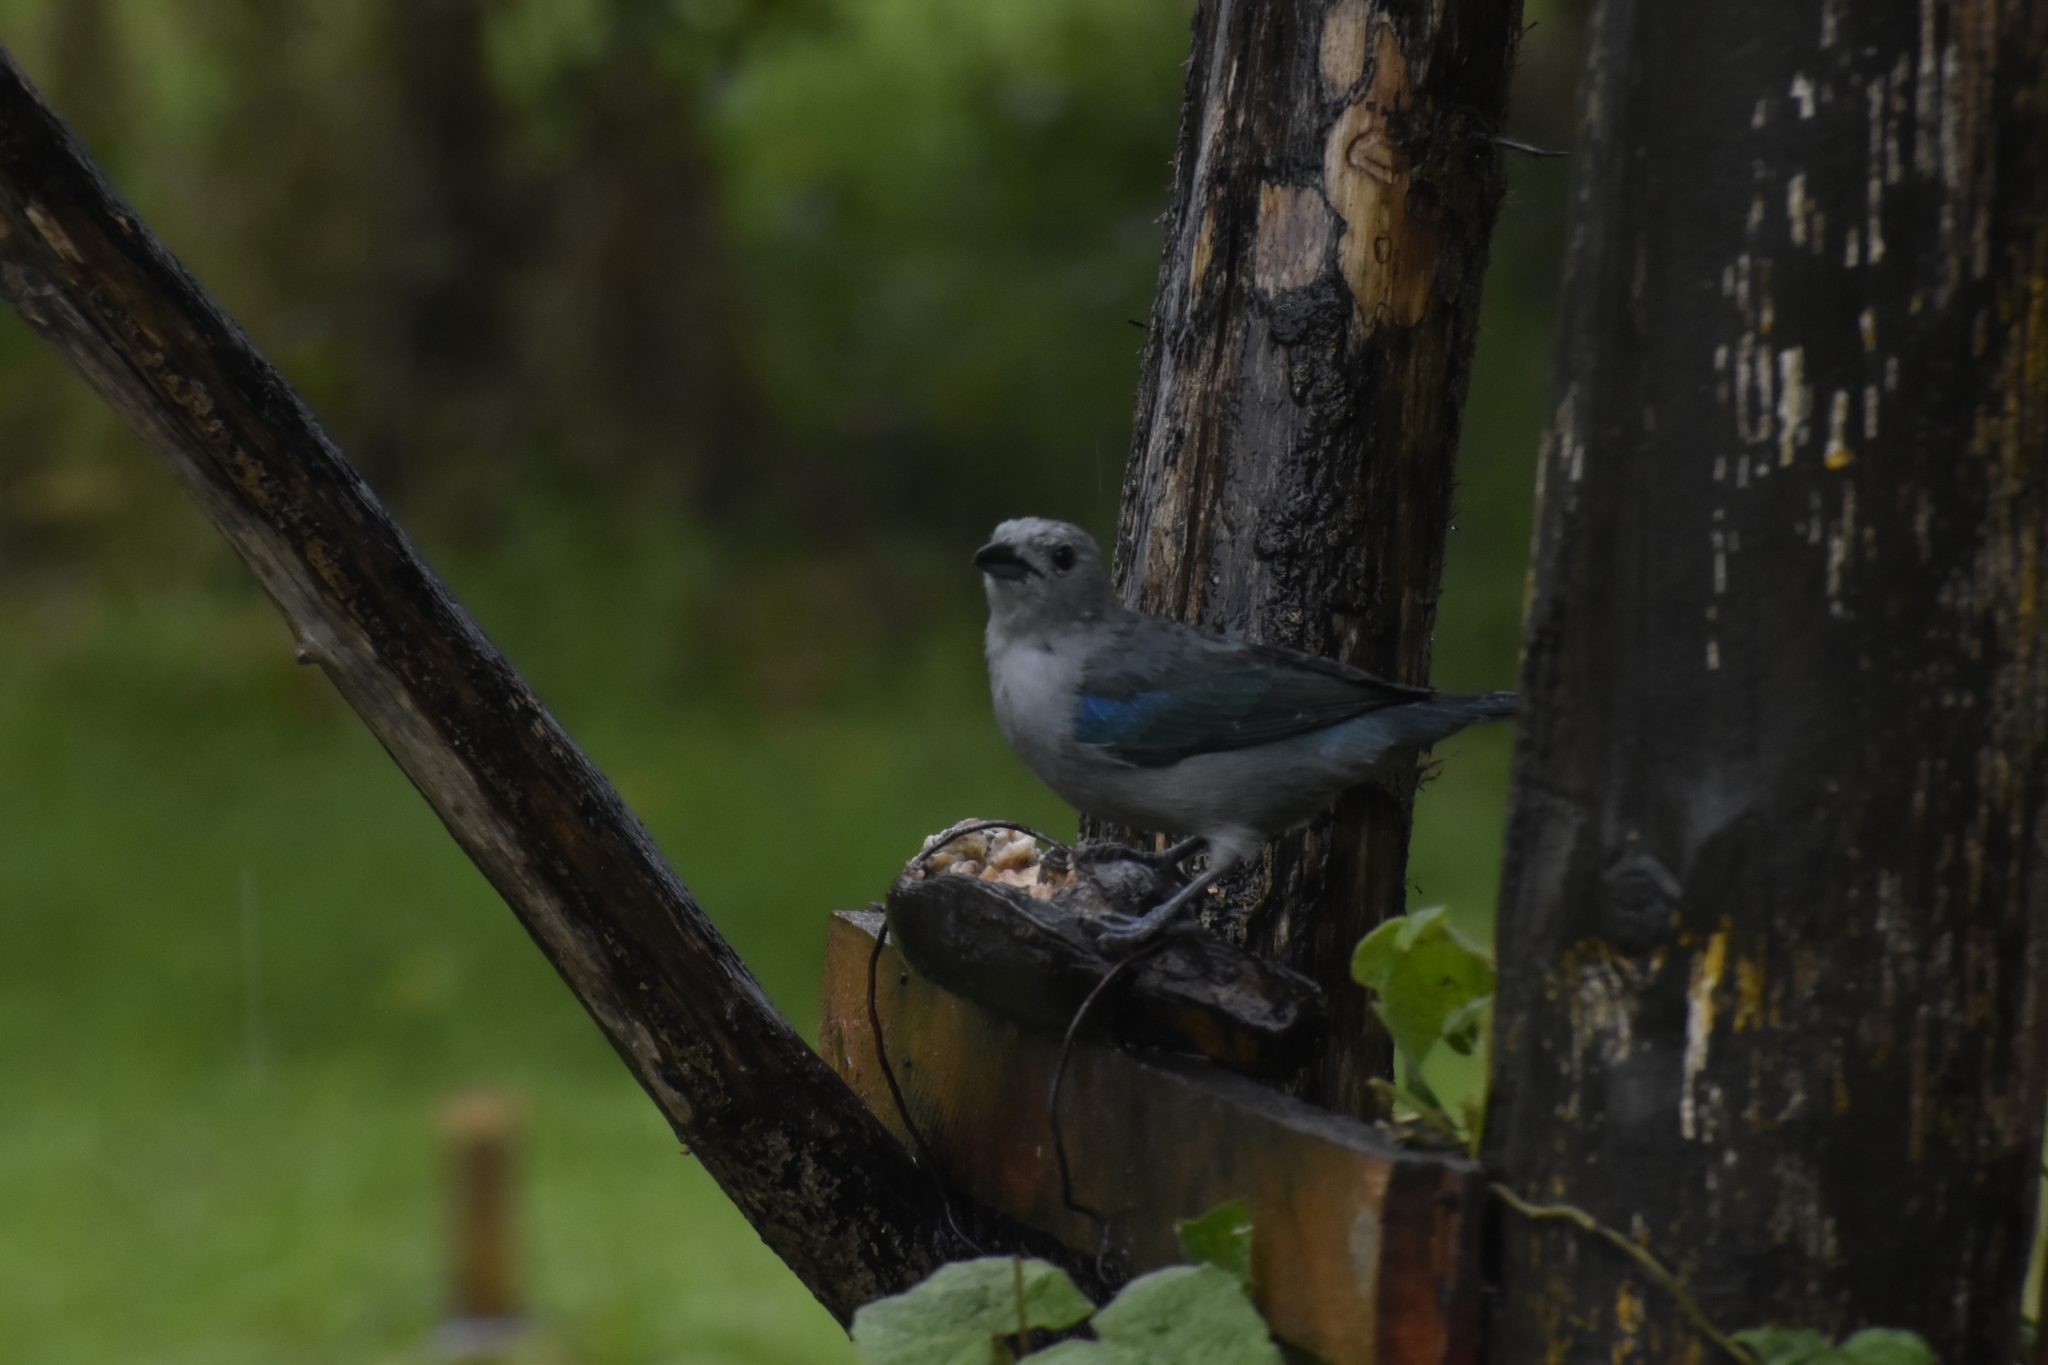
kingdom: Animalia
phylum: Chordata
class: Aves
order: Passeriformes
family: Thraupidae
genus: Thraupis
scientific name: Thraupis episcopus
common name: Blue-grey tanager
